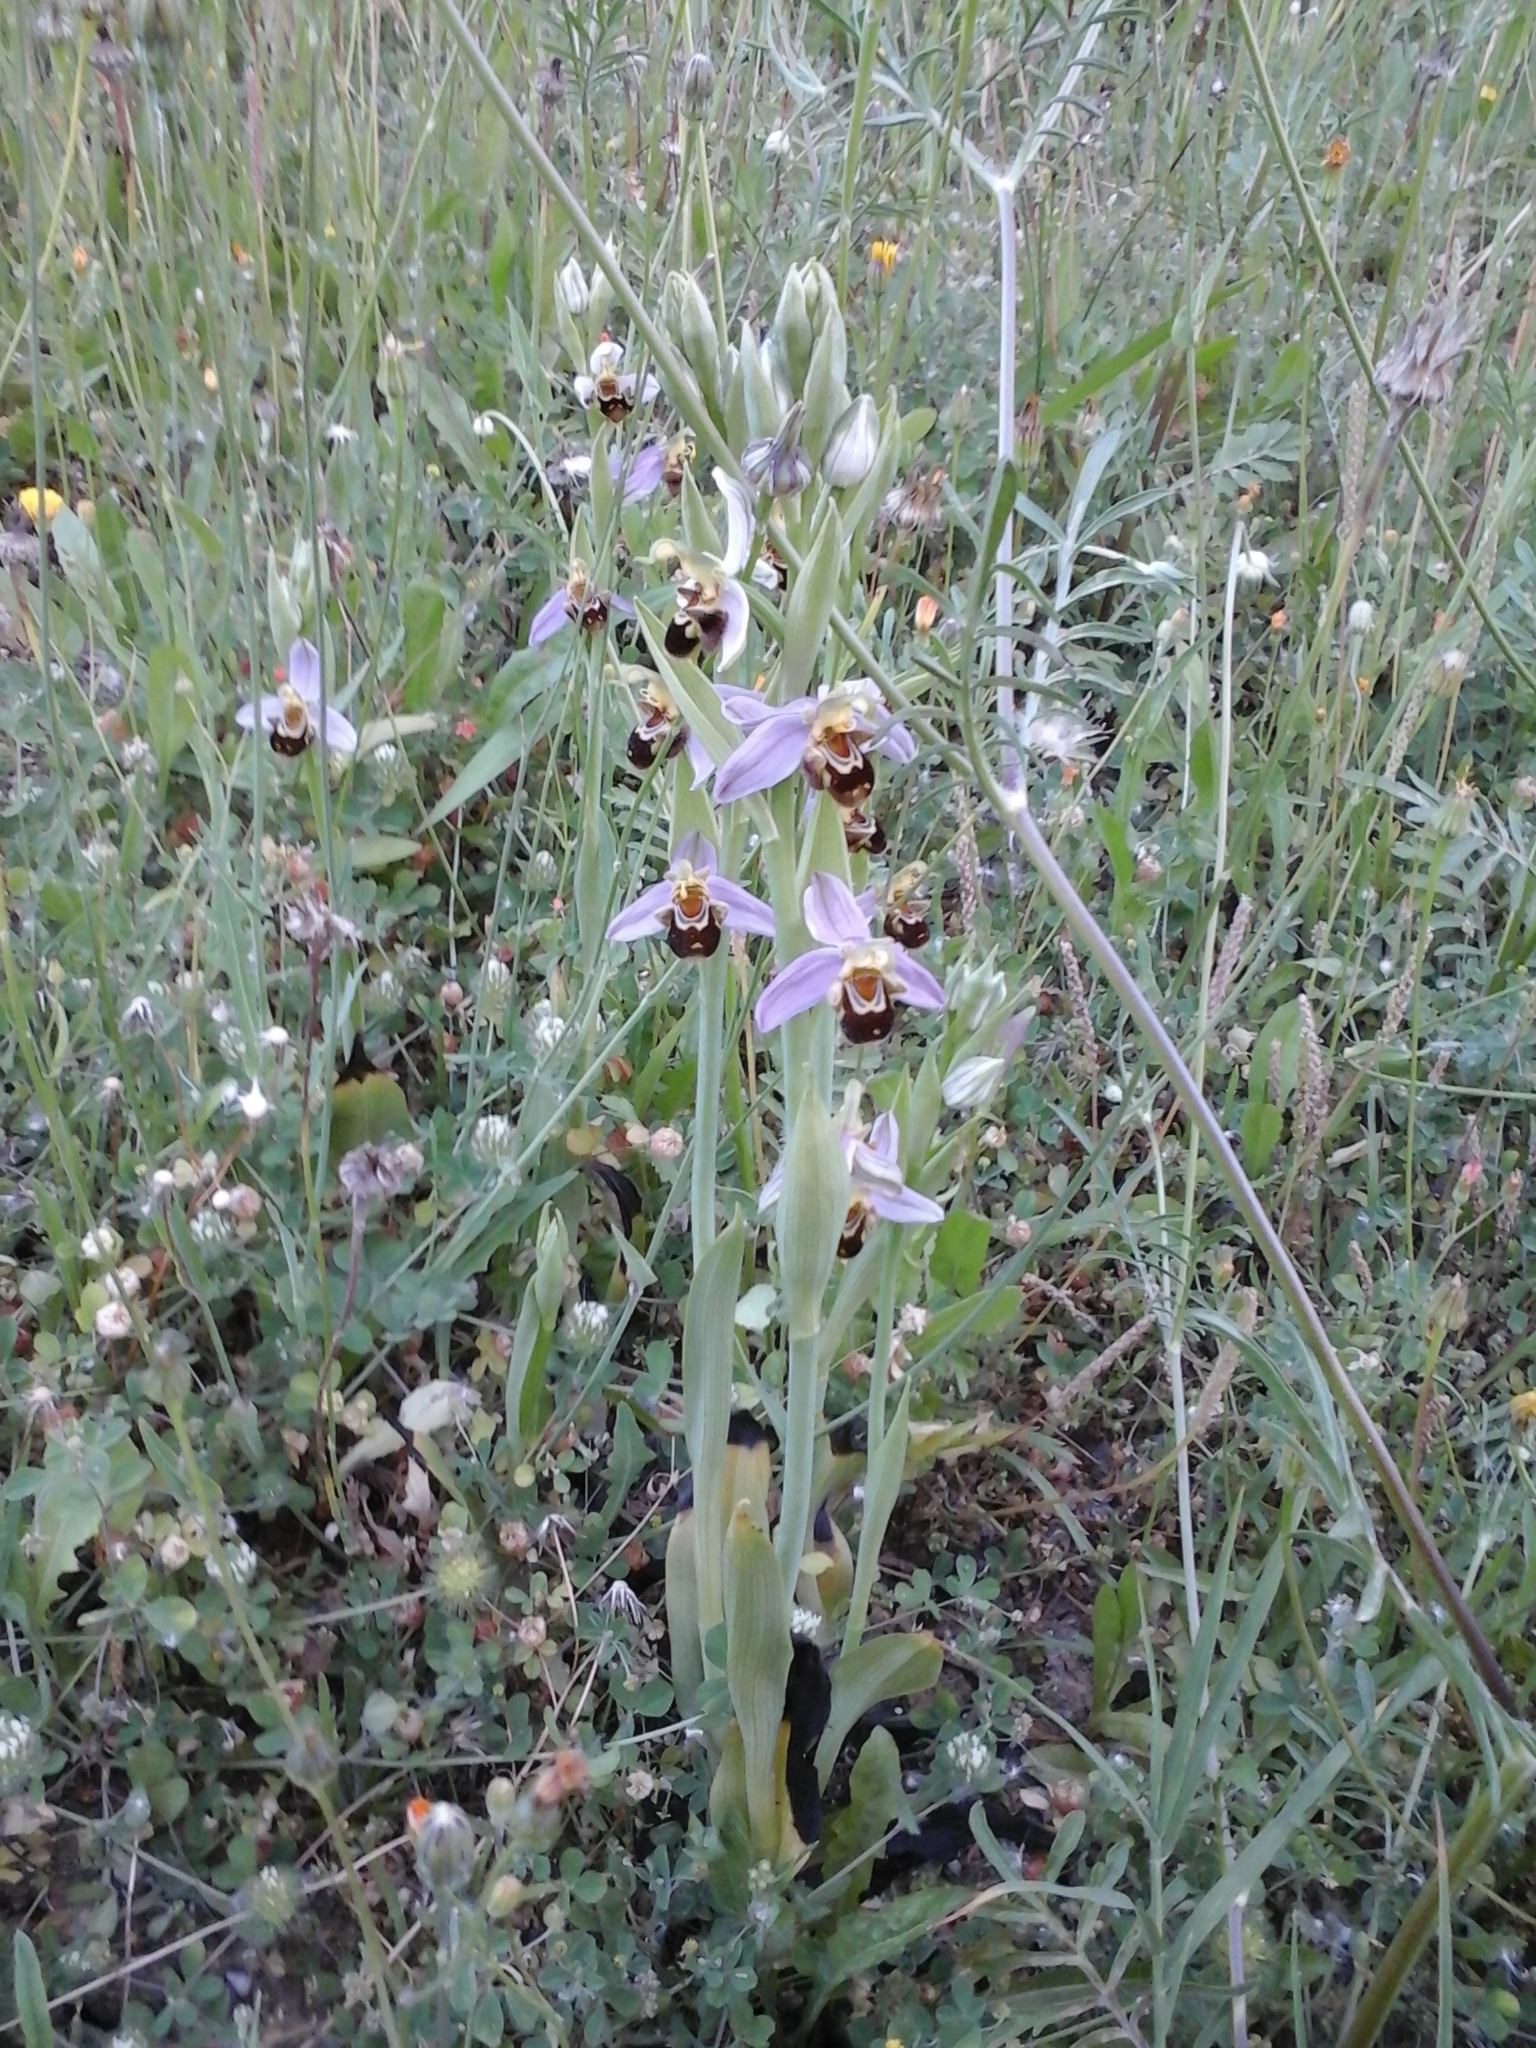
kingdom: Plantae
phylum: Tracheophyta
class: Liliopsida
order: Asparagales
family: Orchidaceae
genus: Ophrys
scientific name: Ophrys apifera
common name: Bee orchid
